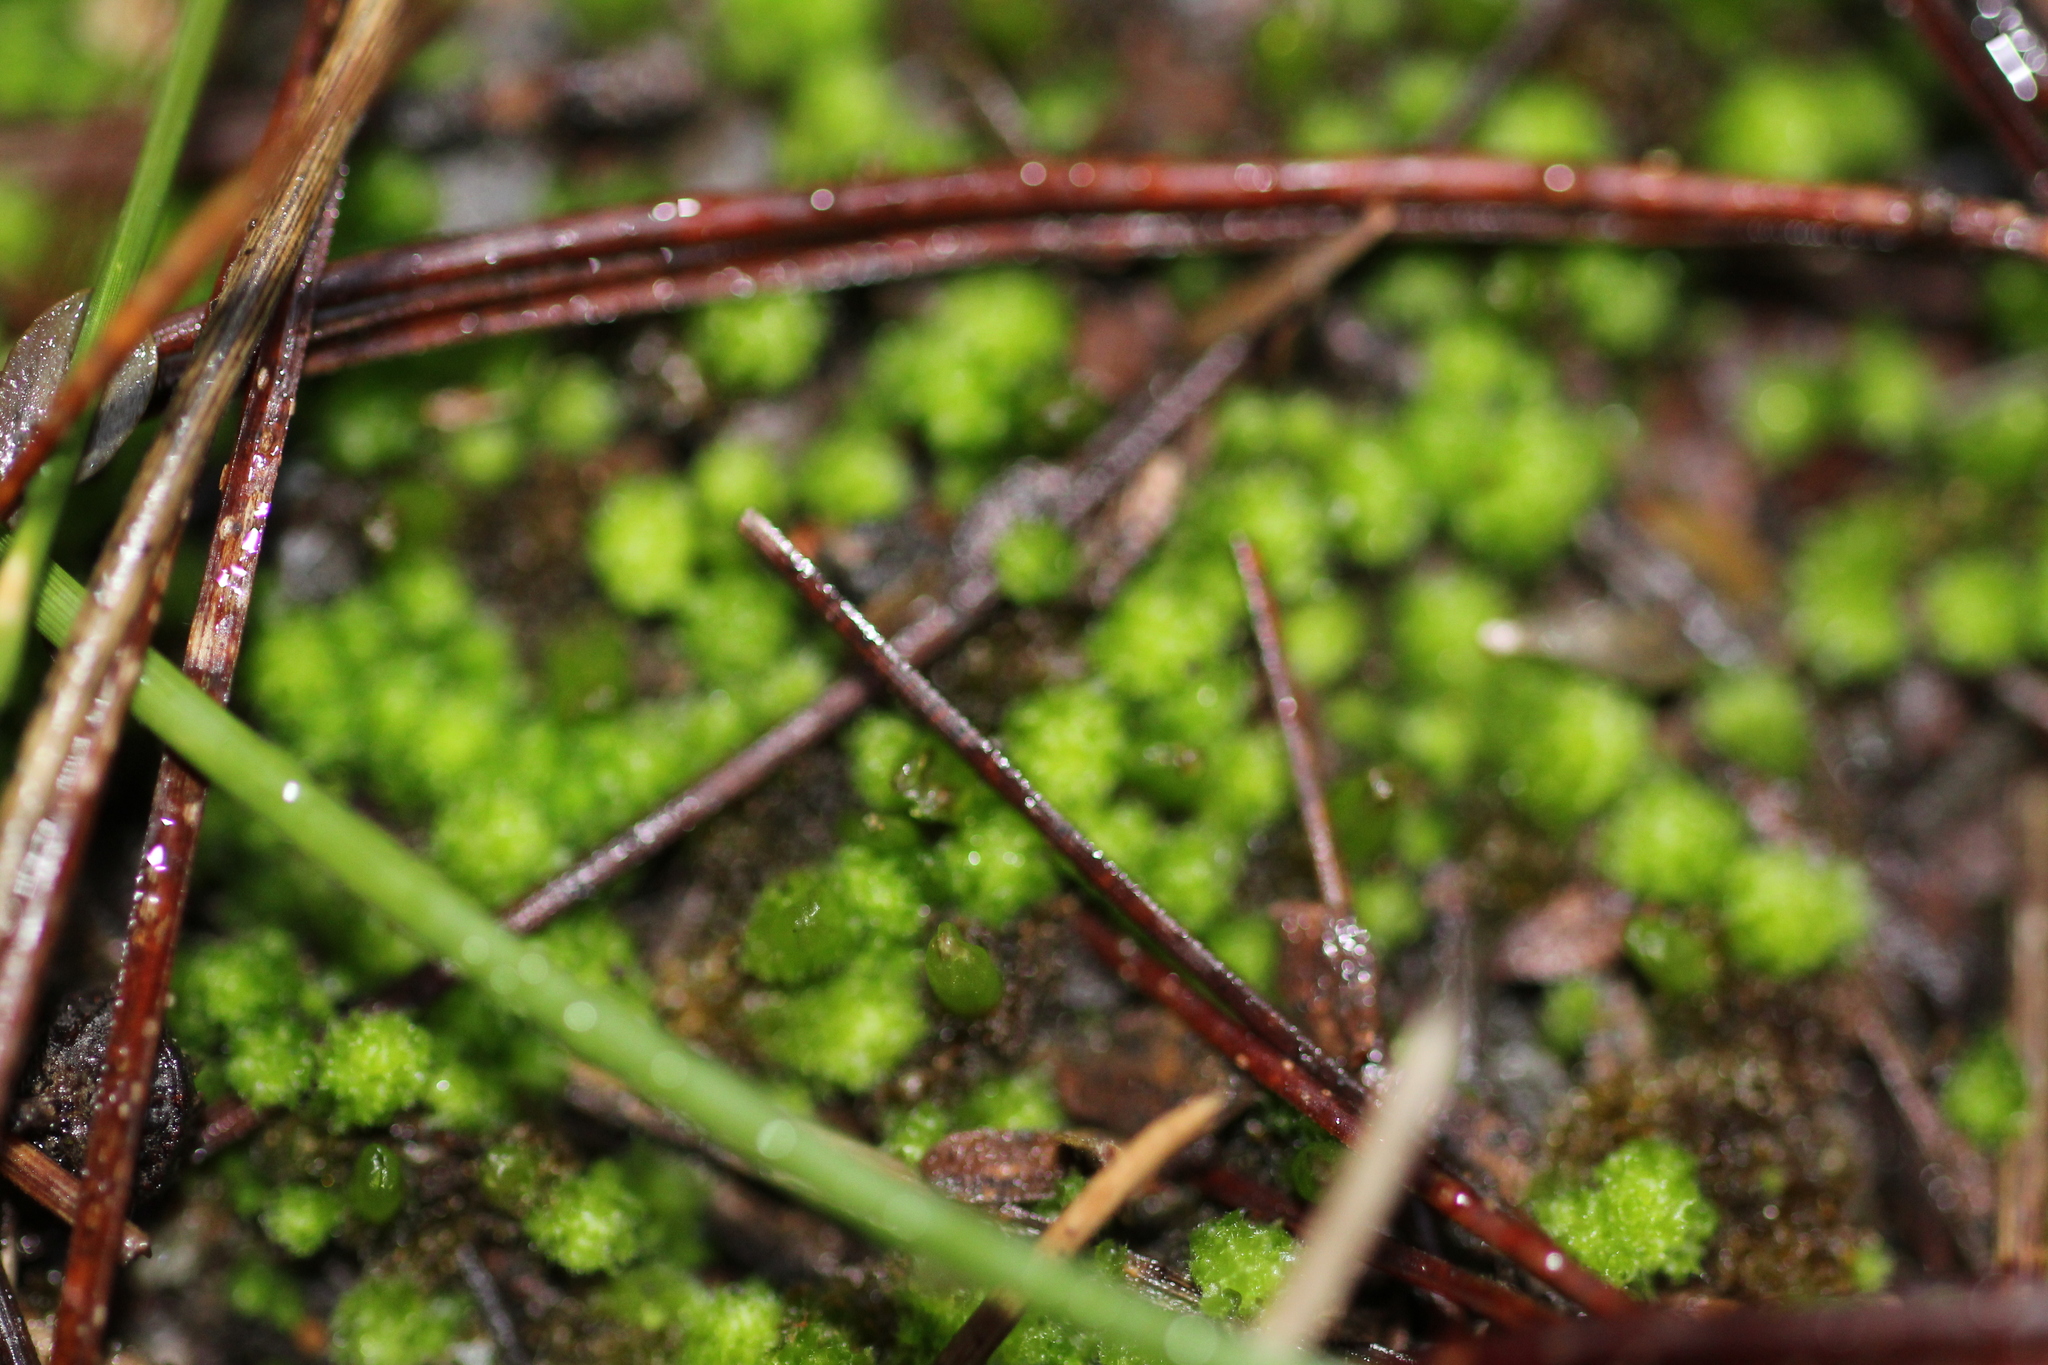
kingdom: Plantae
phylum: Marchantiophyta
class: Jungermanniopsida
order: Jungermanniales
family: Cephaloziellaceae
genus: Chaetophyllopsis
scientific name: Chaetophyllopsis whiteleggei
